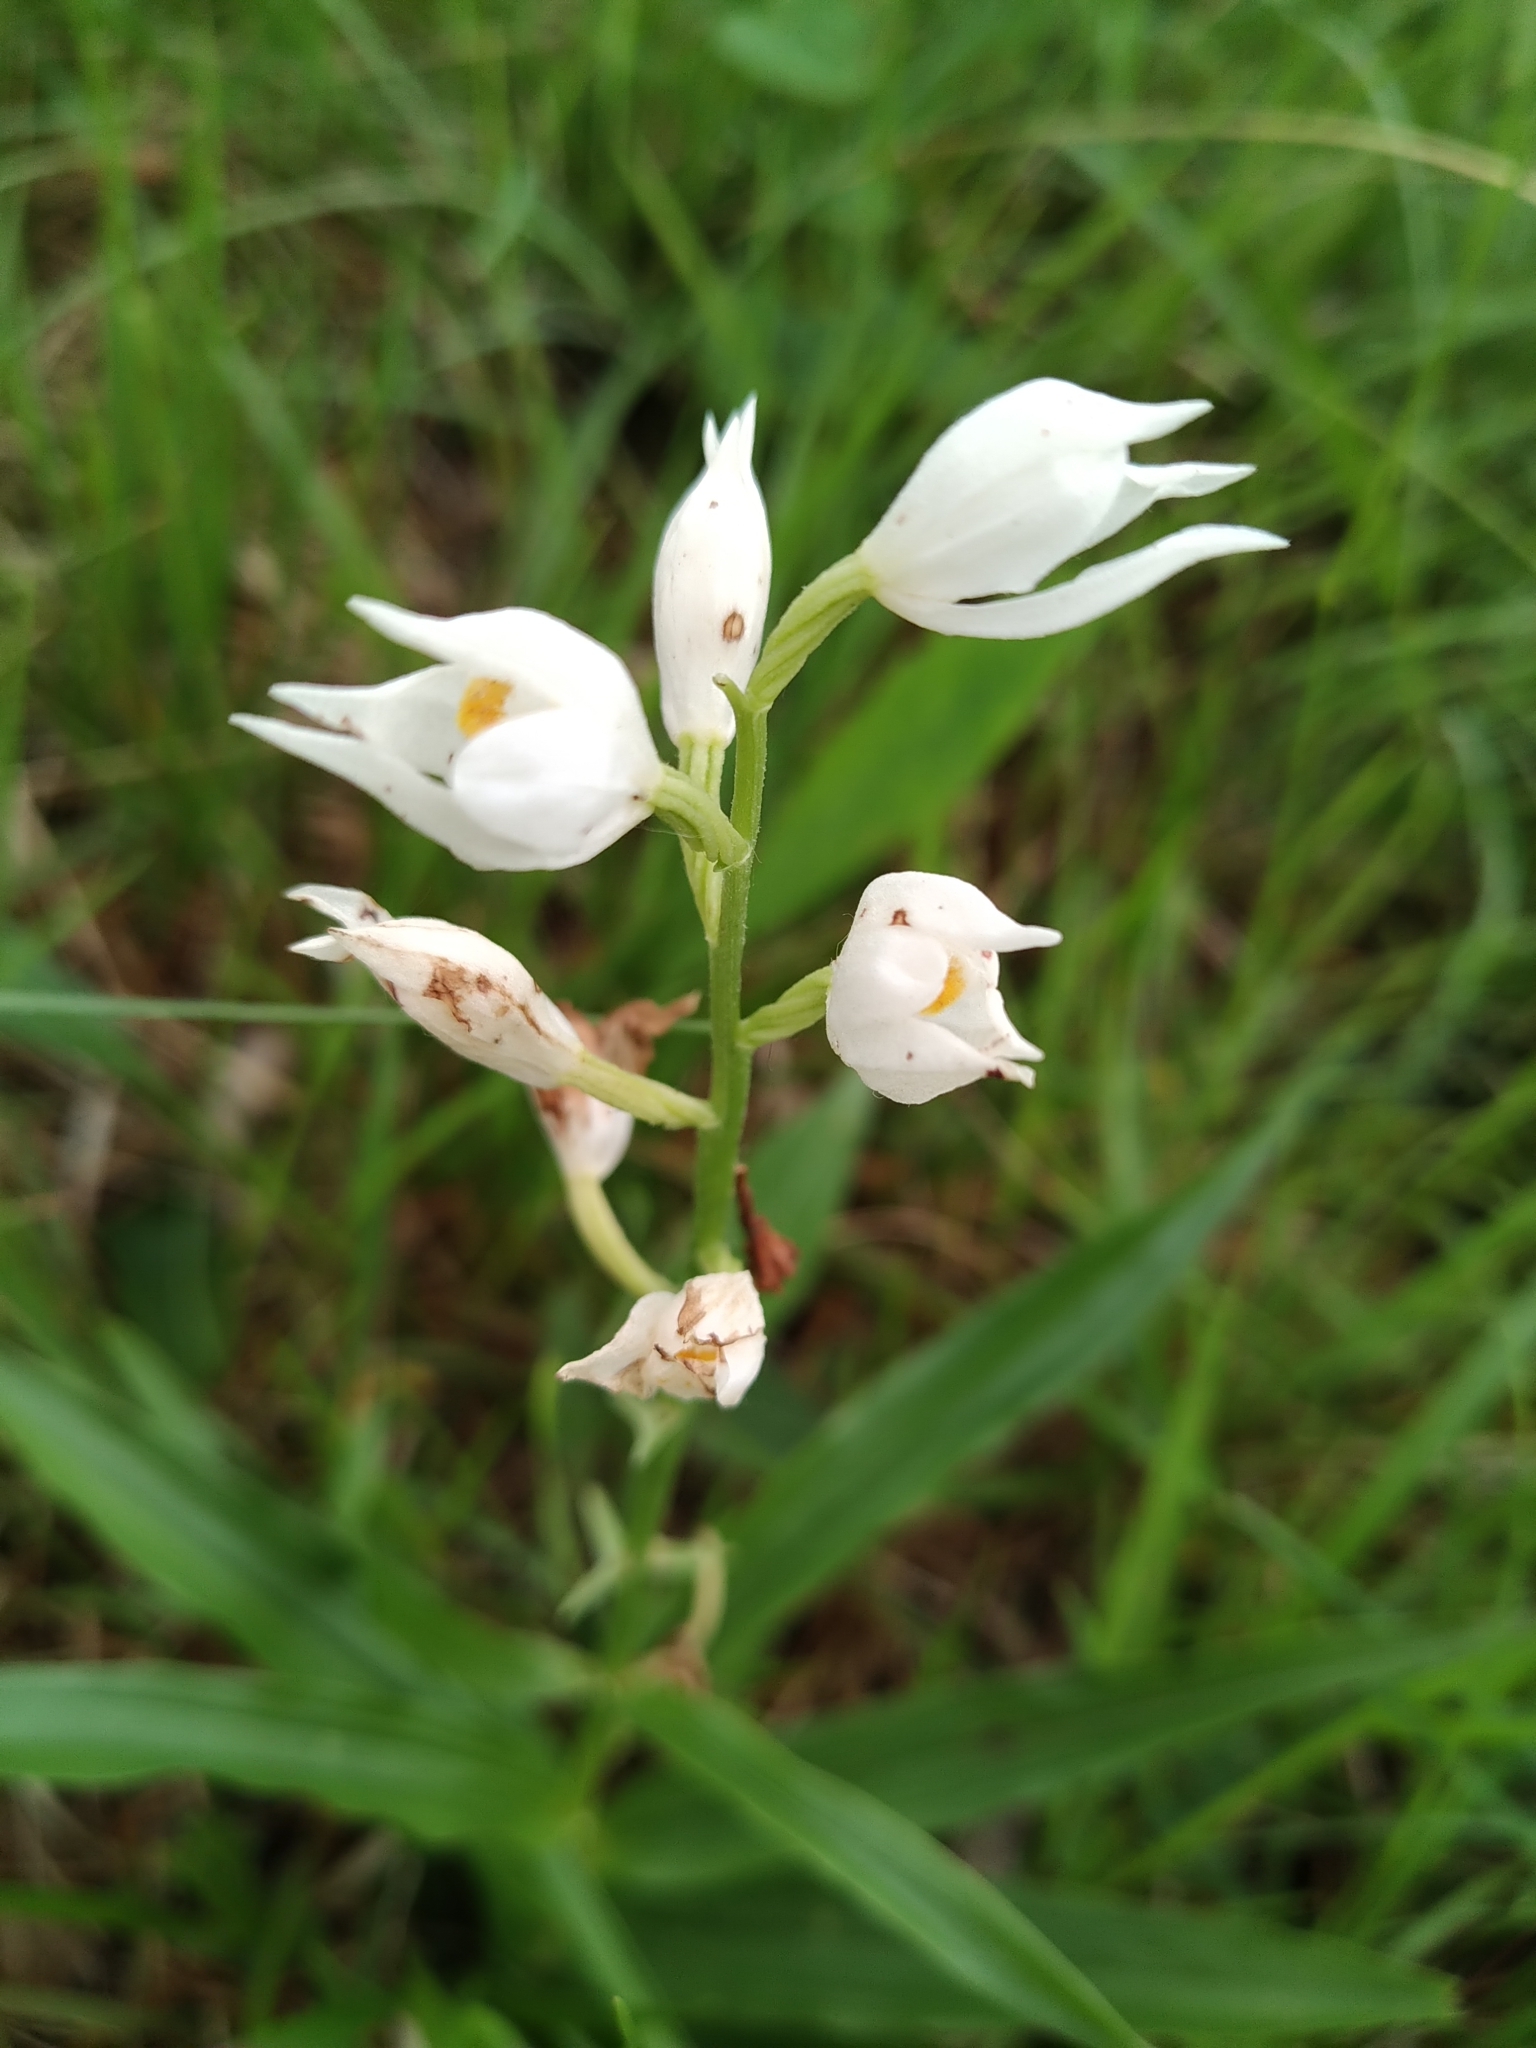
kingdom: Plantae
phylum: Tracheophyta
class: Liliopsida
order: Asparagales
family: Orchidaceae
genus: Cephalanthera
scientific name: Cephalanthera longifolia
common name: Narrow-leaved helleborine
